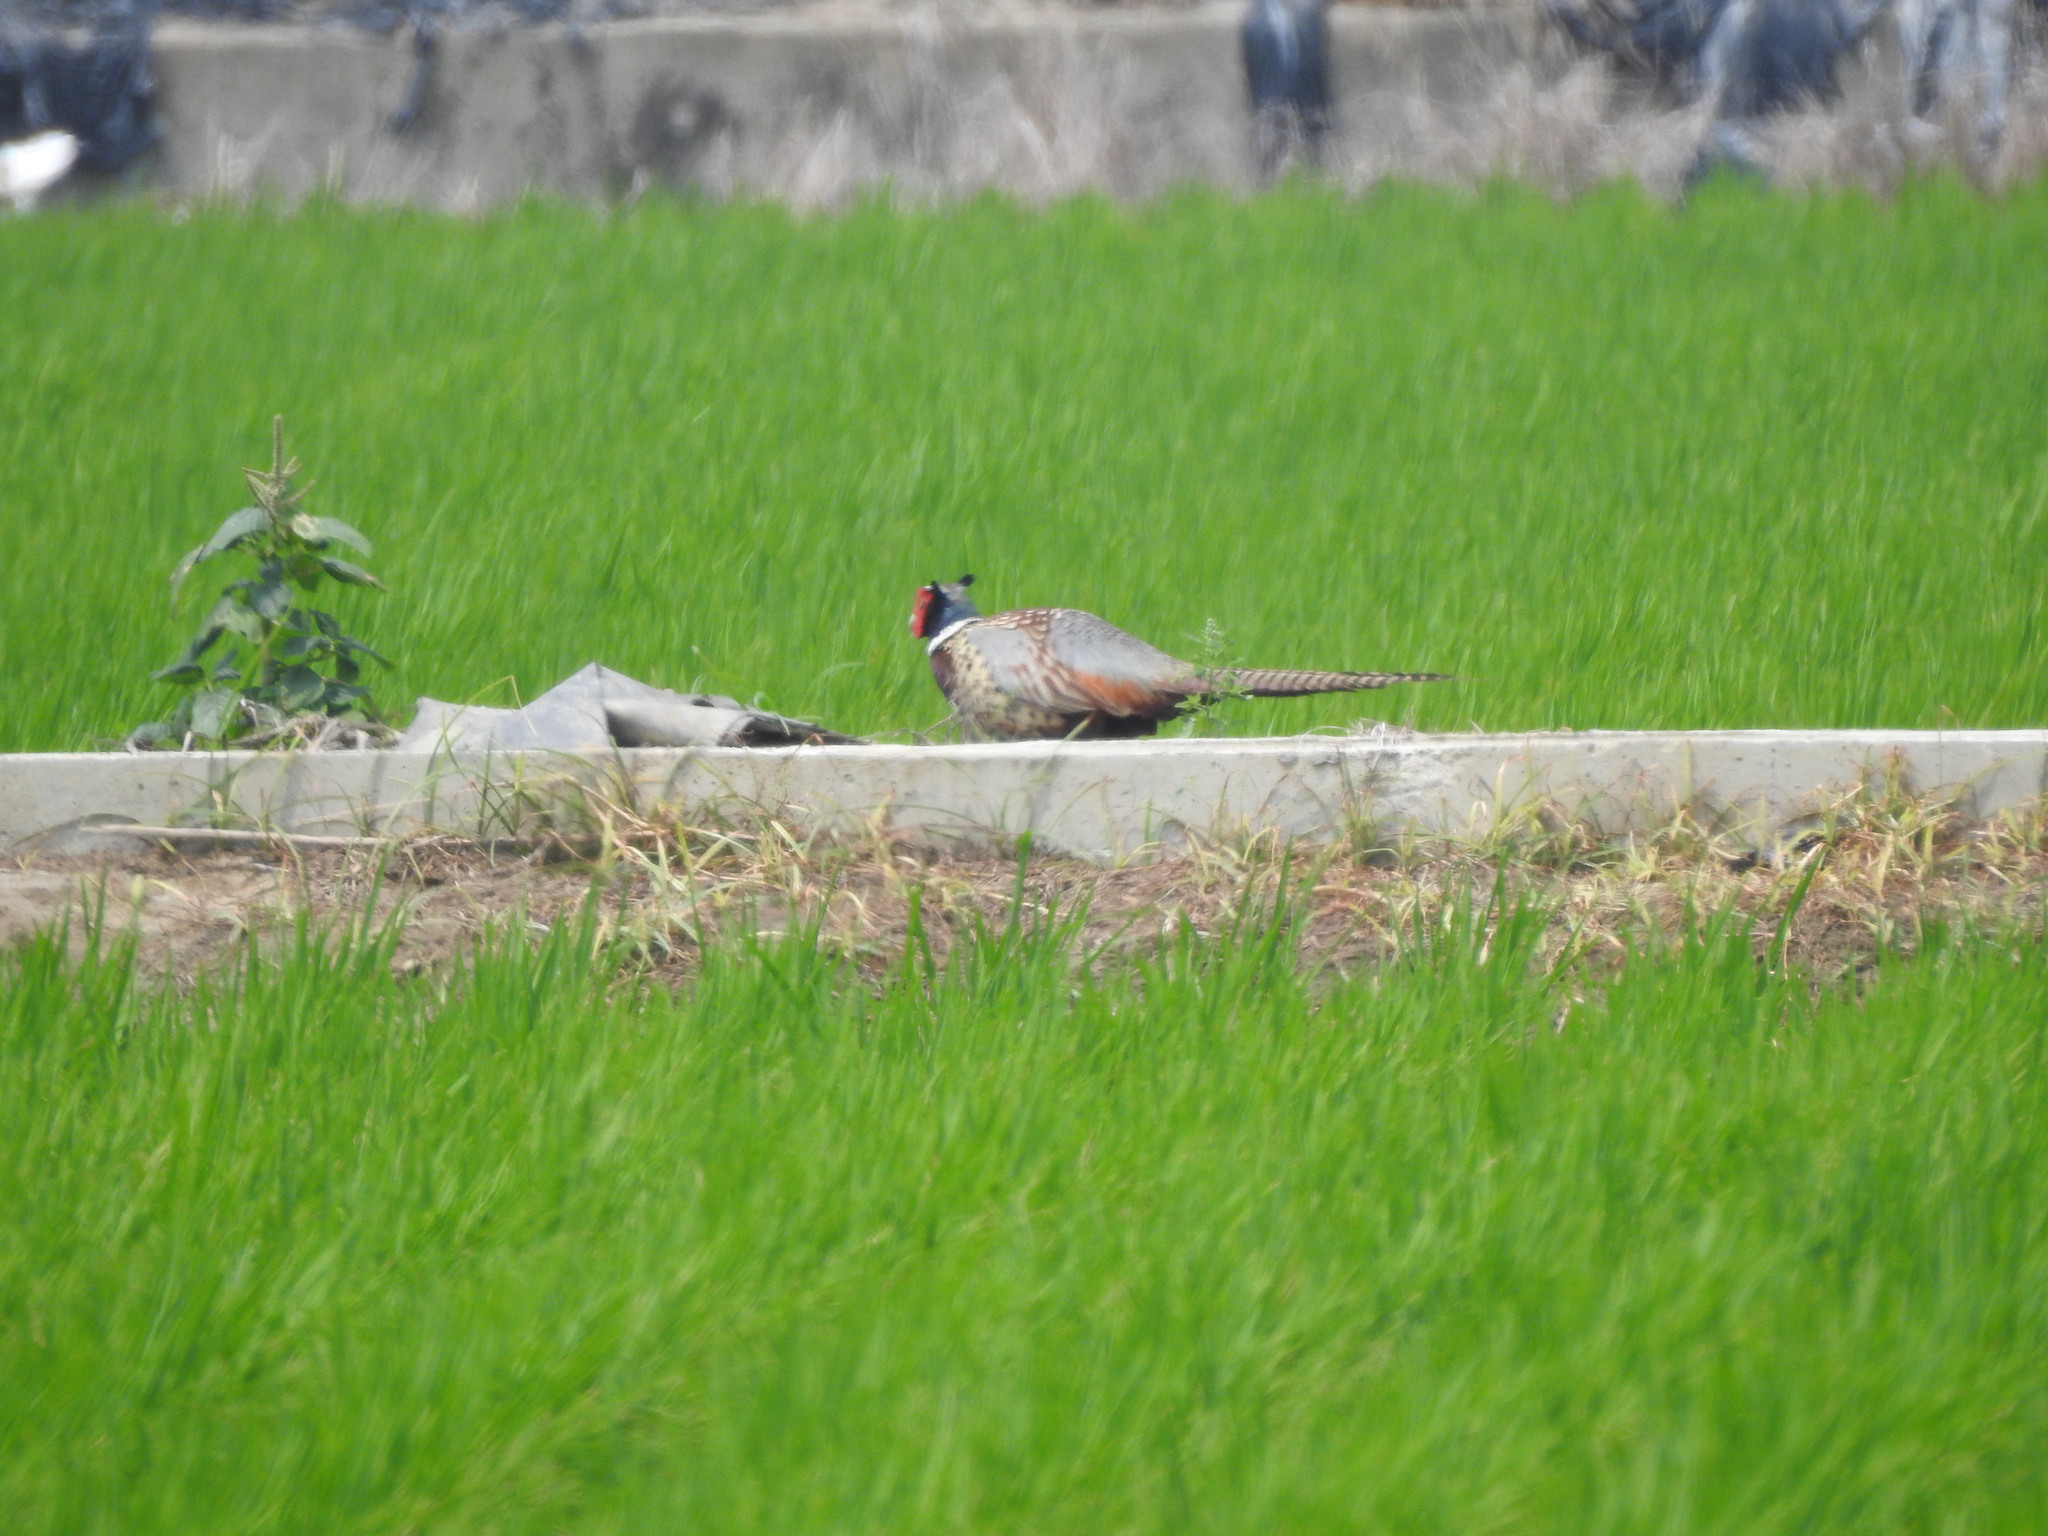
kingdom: Animalia
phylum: Chordata
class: Aves
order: Galliformes
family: Phasianidae
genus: Phasianus
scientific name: Phasianus colchicus
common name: Common pheasant
